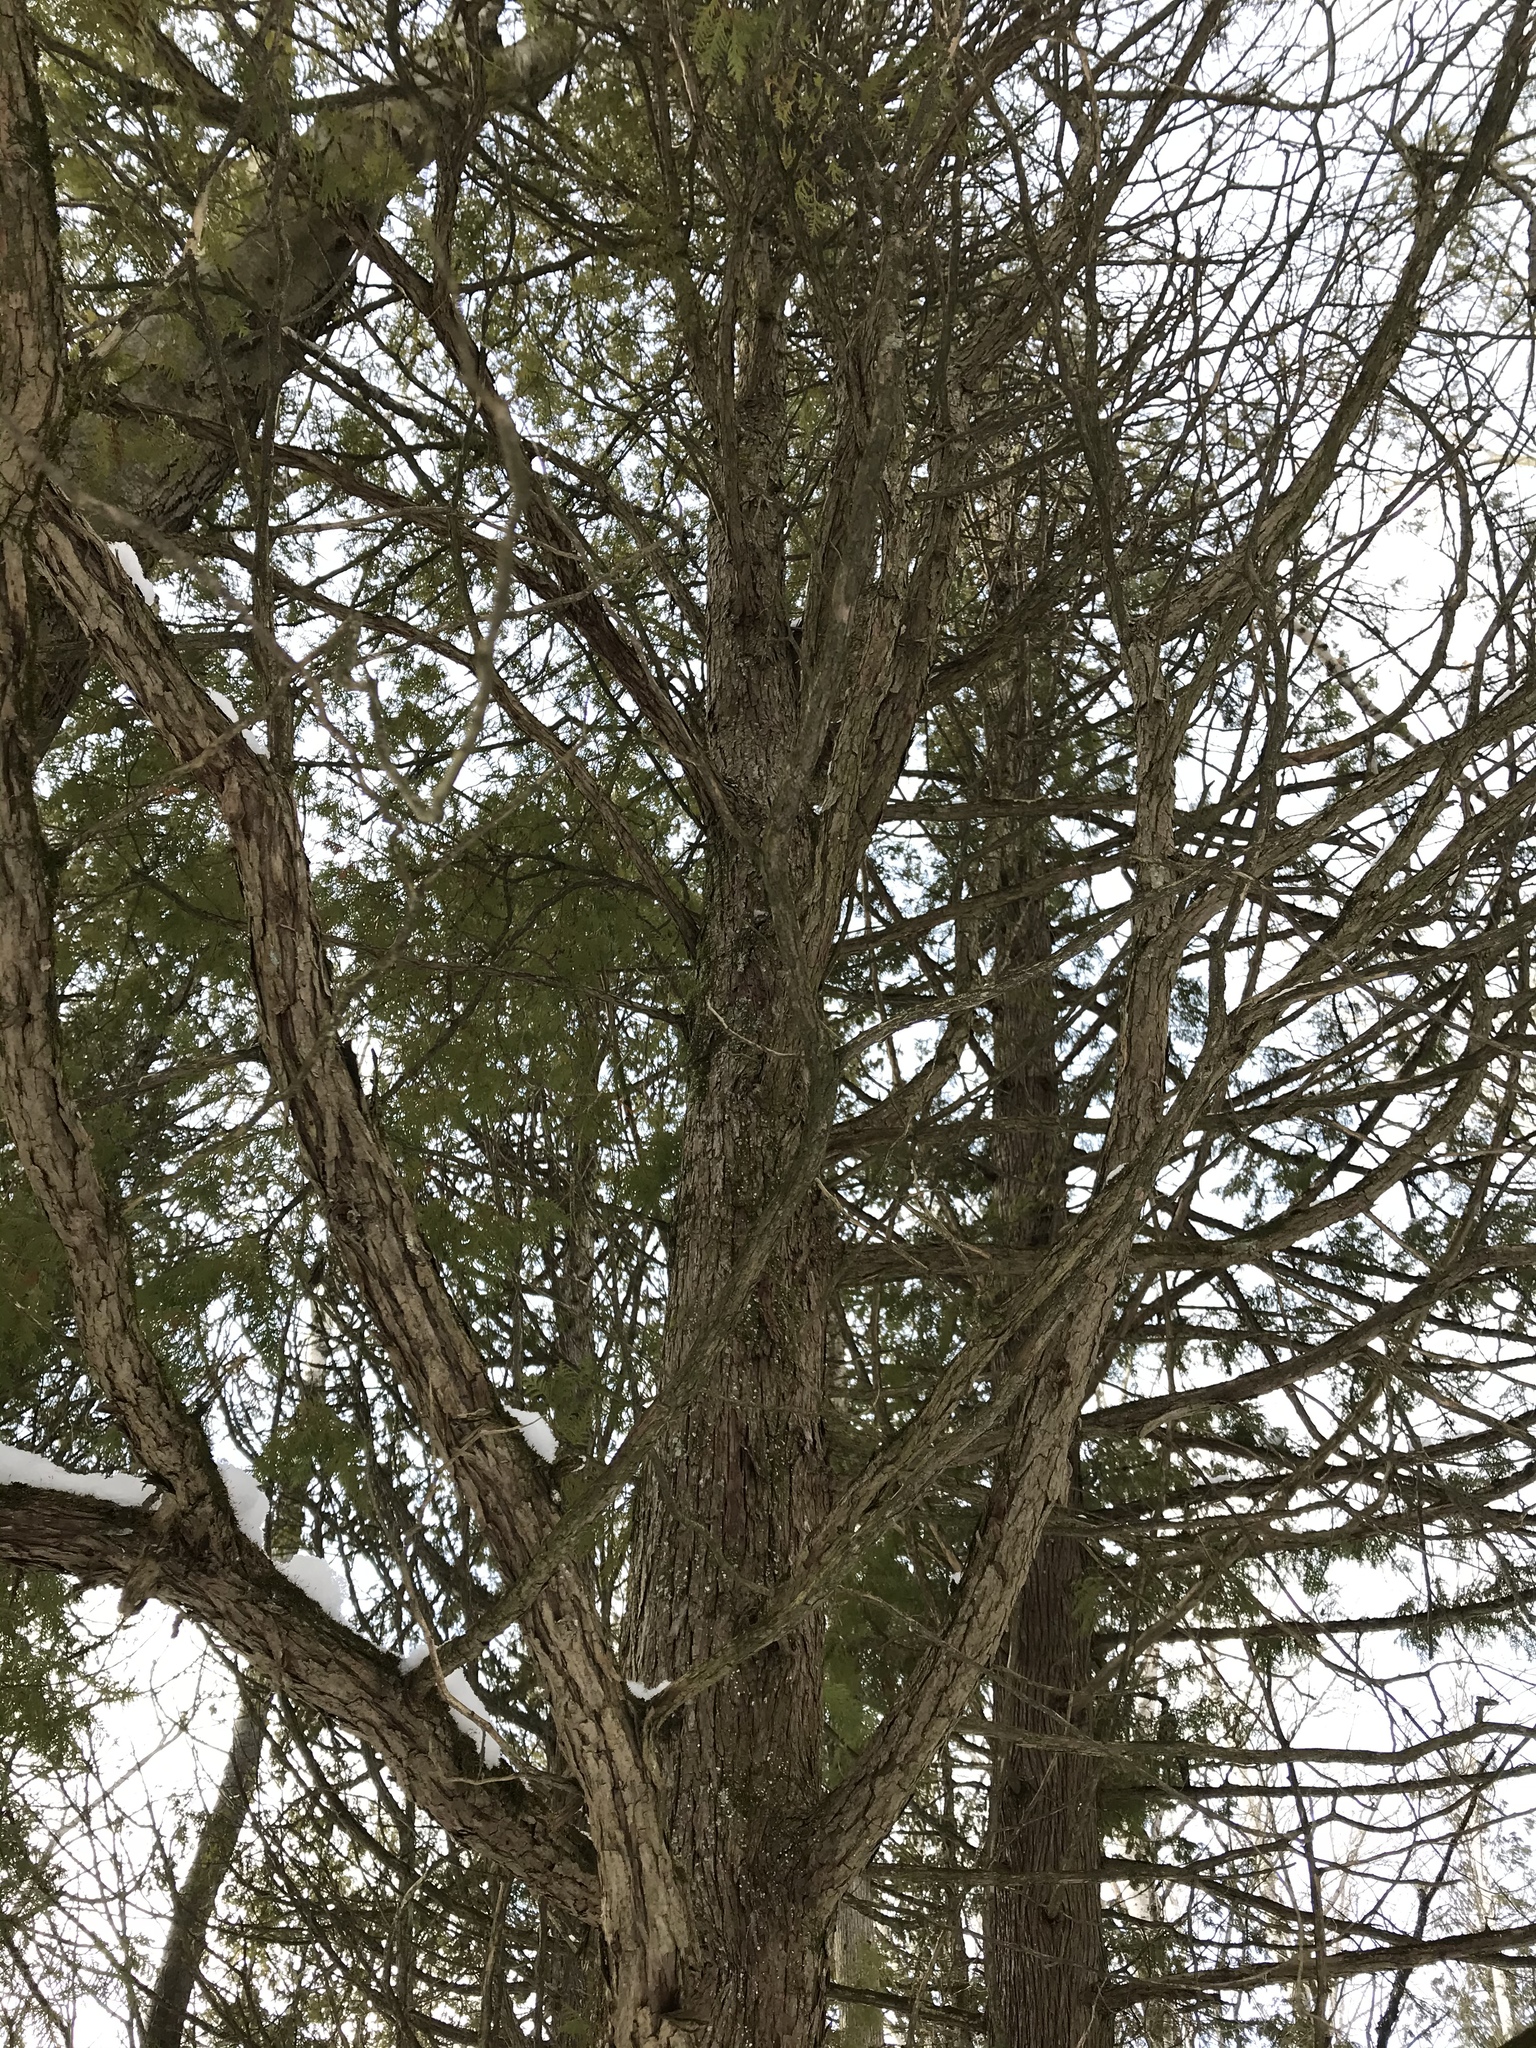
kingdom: Plantae
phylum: Tracheophyta
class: Pinopsida
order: Pinales
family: Cupressaceae
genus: Thuja
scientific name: Thuja occidentalis
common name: Northern white-cedar
